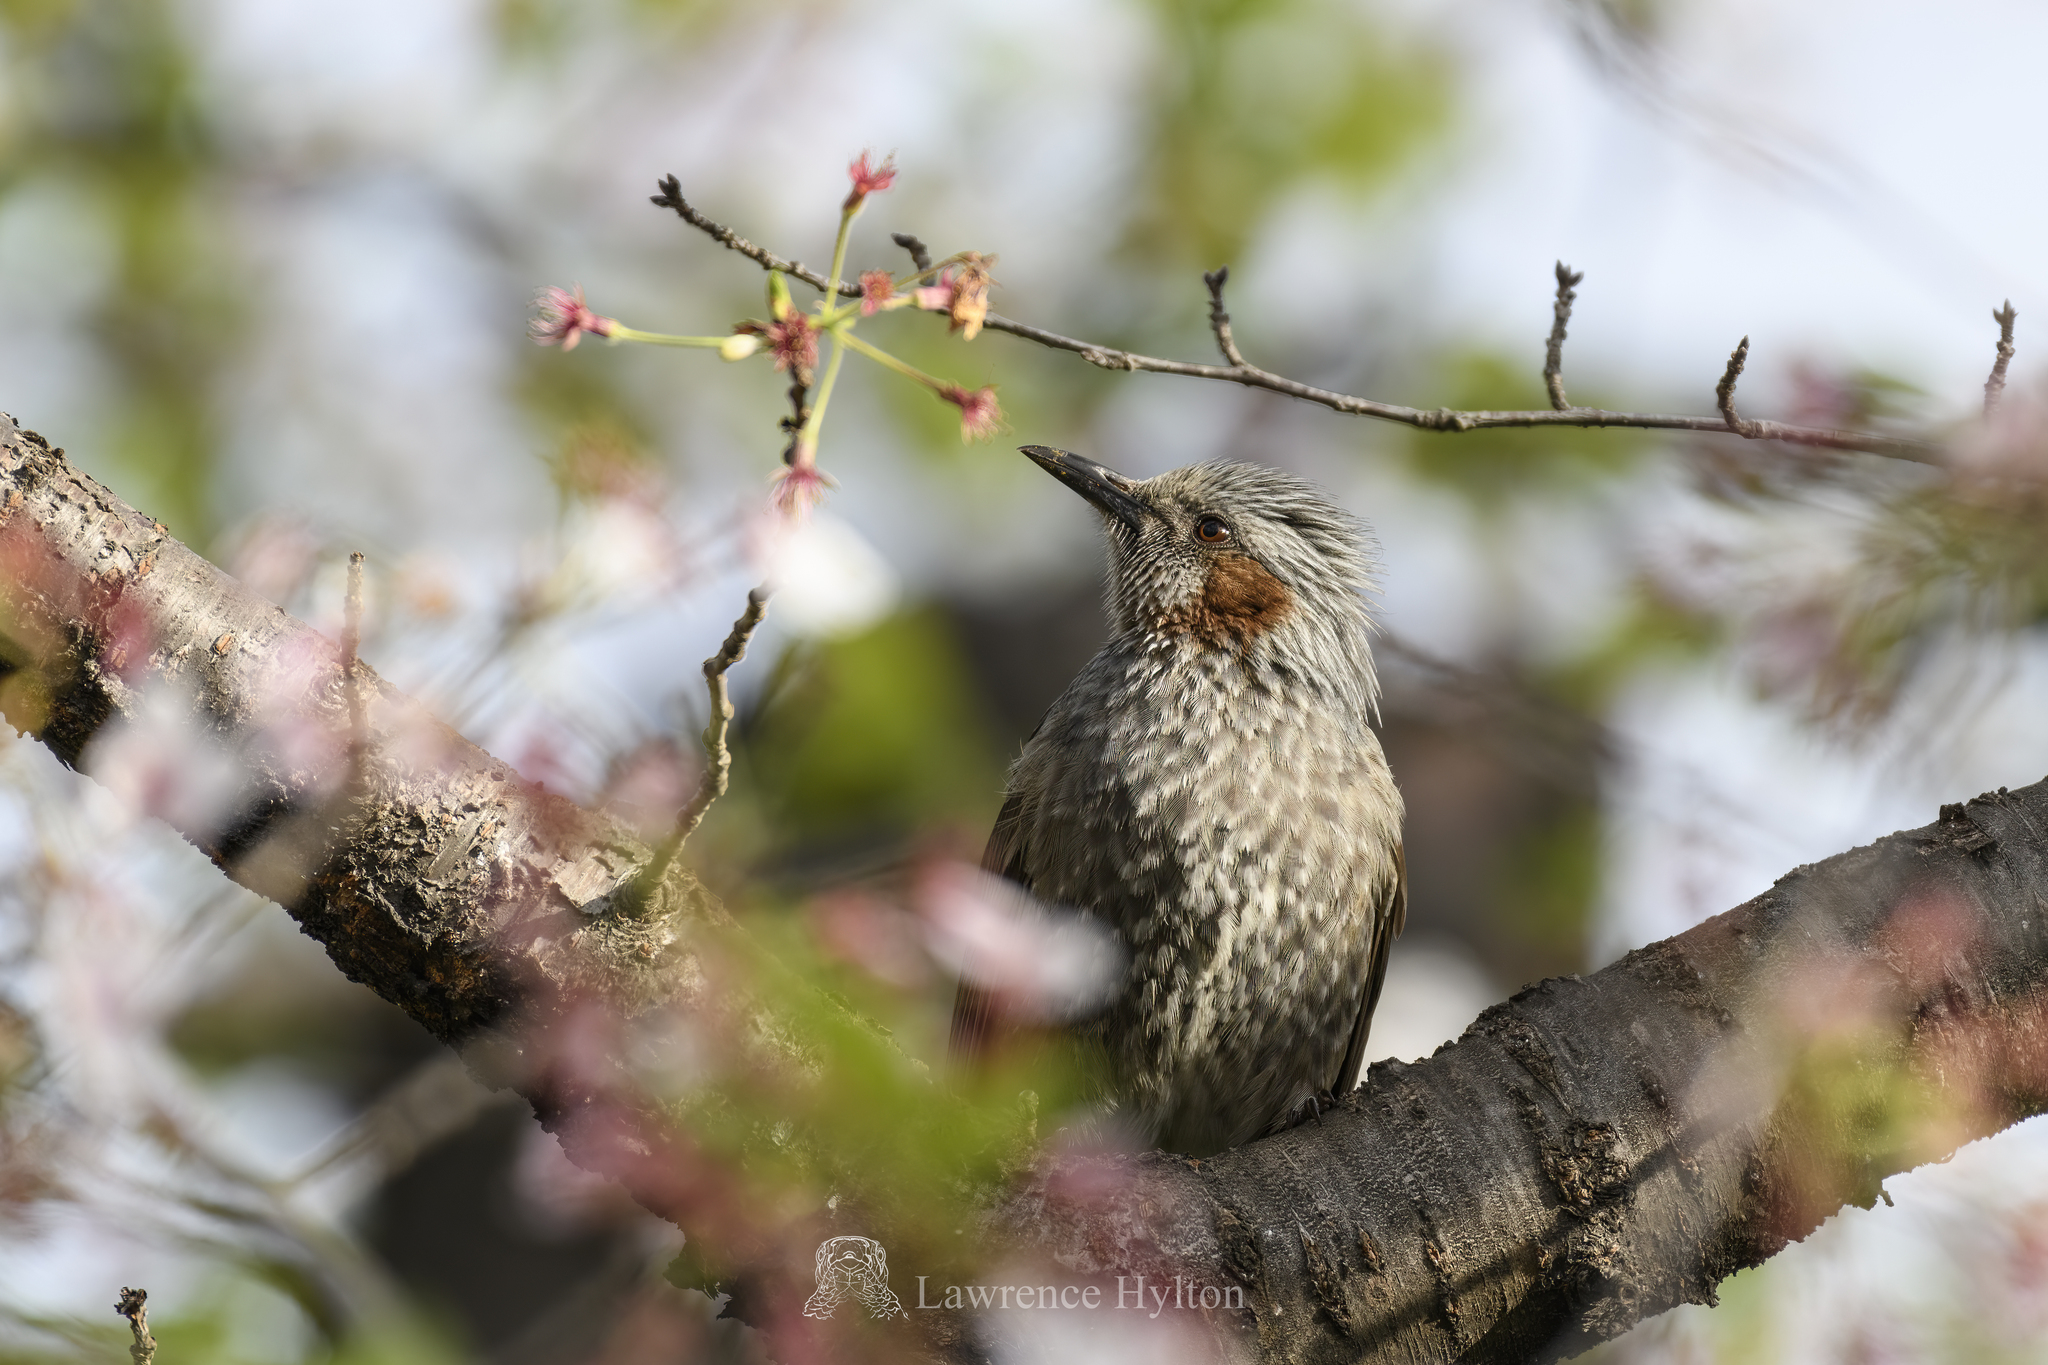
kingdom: Animalia
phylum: Chordata
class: Aves
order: Passeriformes
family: Pycnonotidae
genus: Hypsipetes
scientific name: Hypsipetes amaurotis
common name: Brown-eared bulbul
